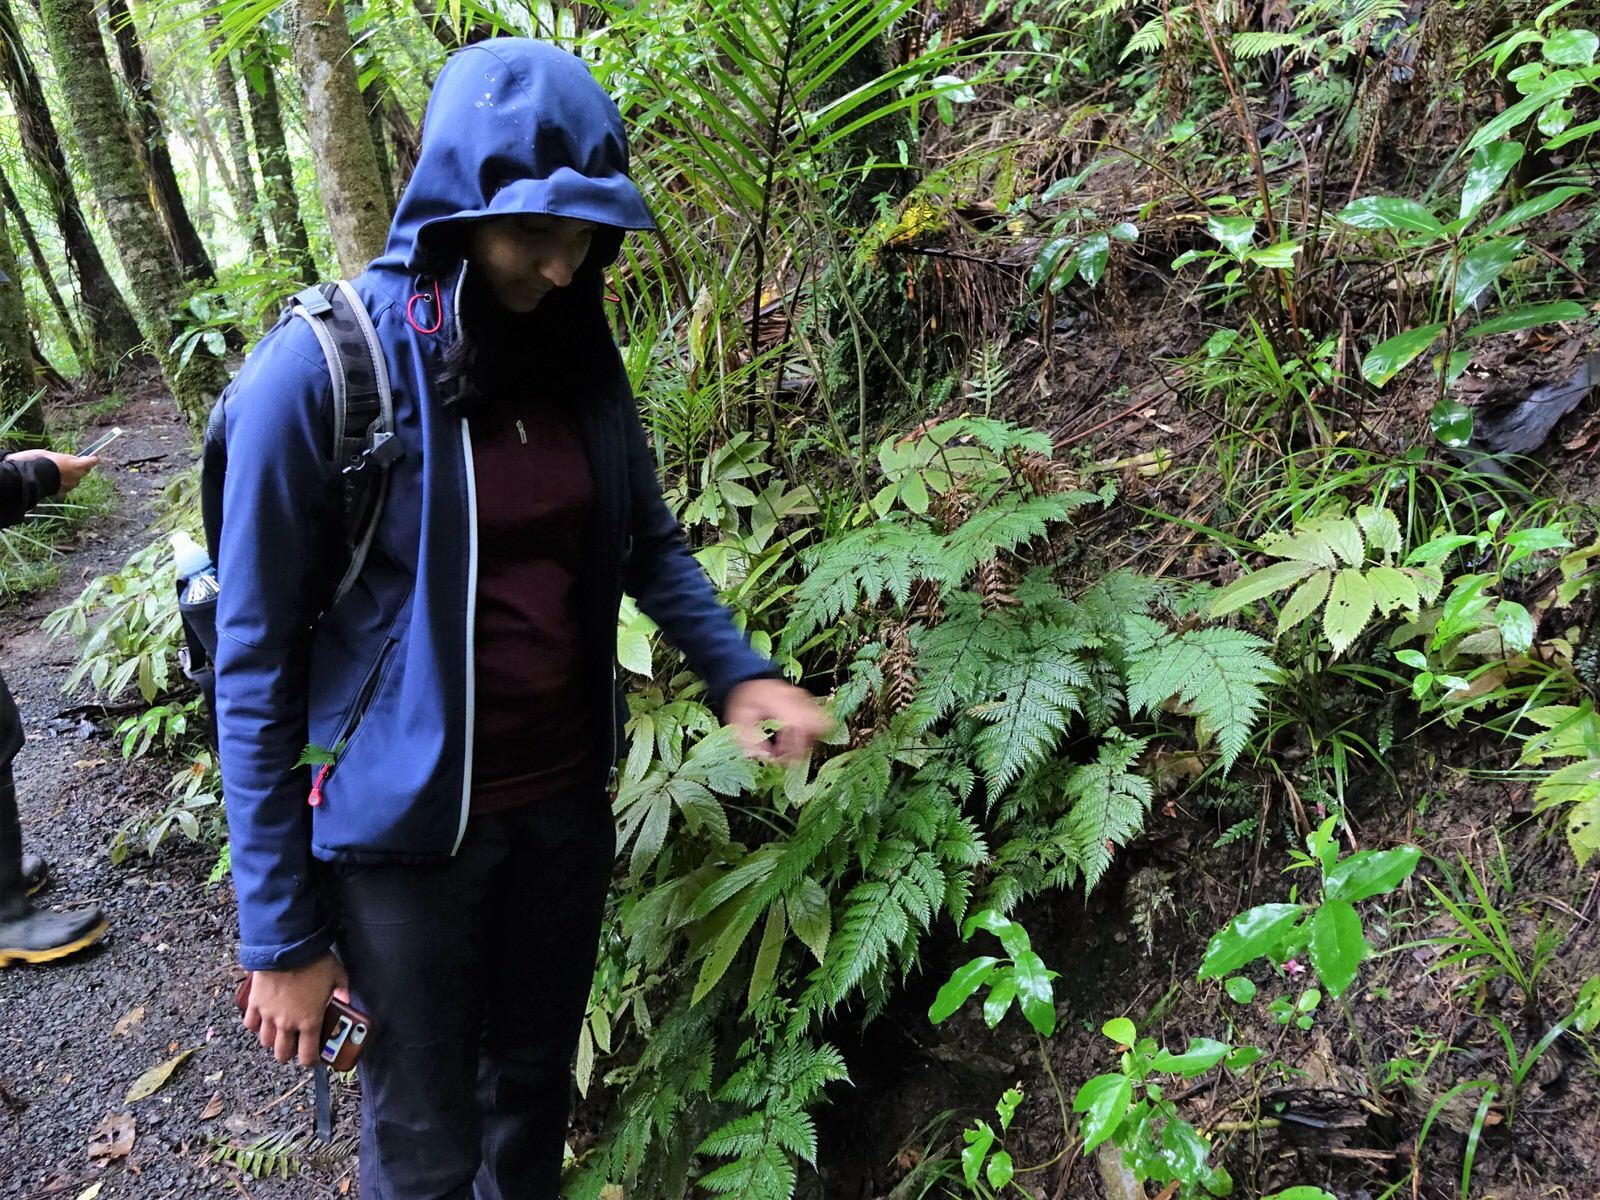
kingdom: Plantae
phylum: Tracheophyta
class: Polypodiopsida
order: Polypodiales
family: Dryopteridaceae
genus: Lastreopsis
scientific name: Lastreopsis hispida
